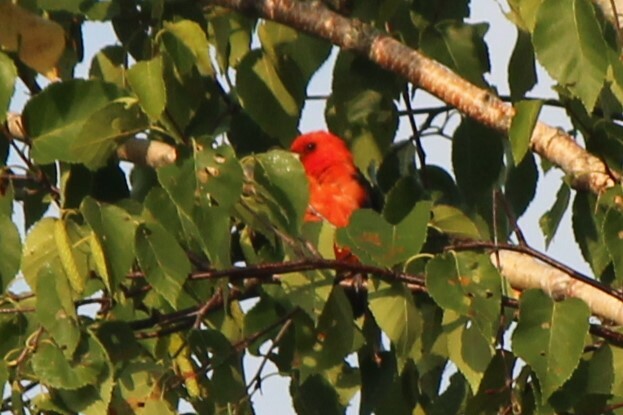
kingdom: Animalia
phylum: Chordata
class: Aves
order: Passeriformes
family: Cardinalidae
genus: Piranga
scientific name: Piranga olivacea
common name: Scarlet tanager
